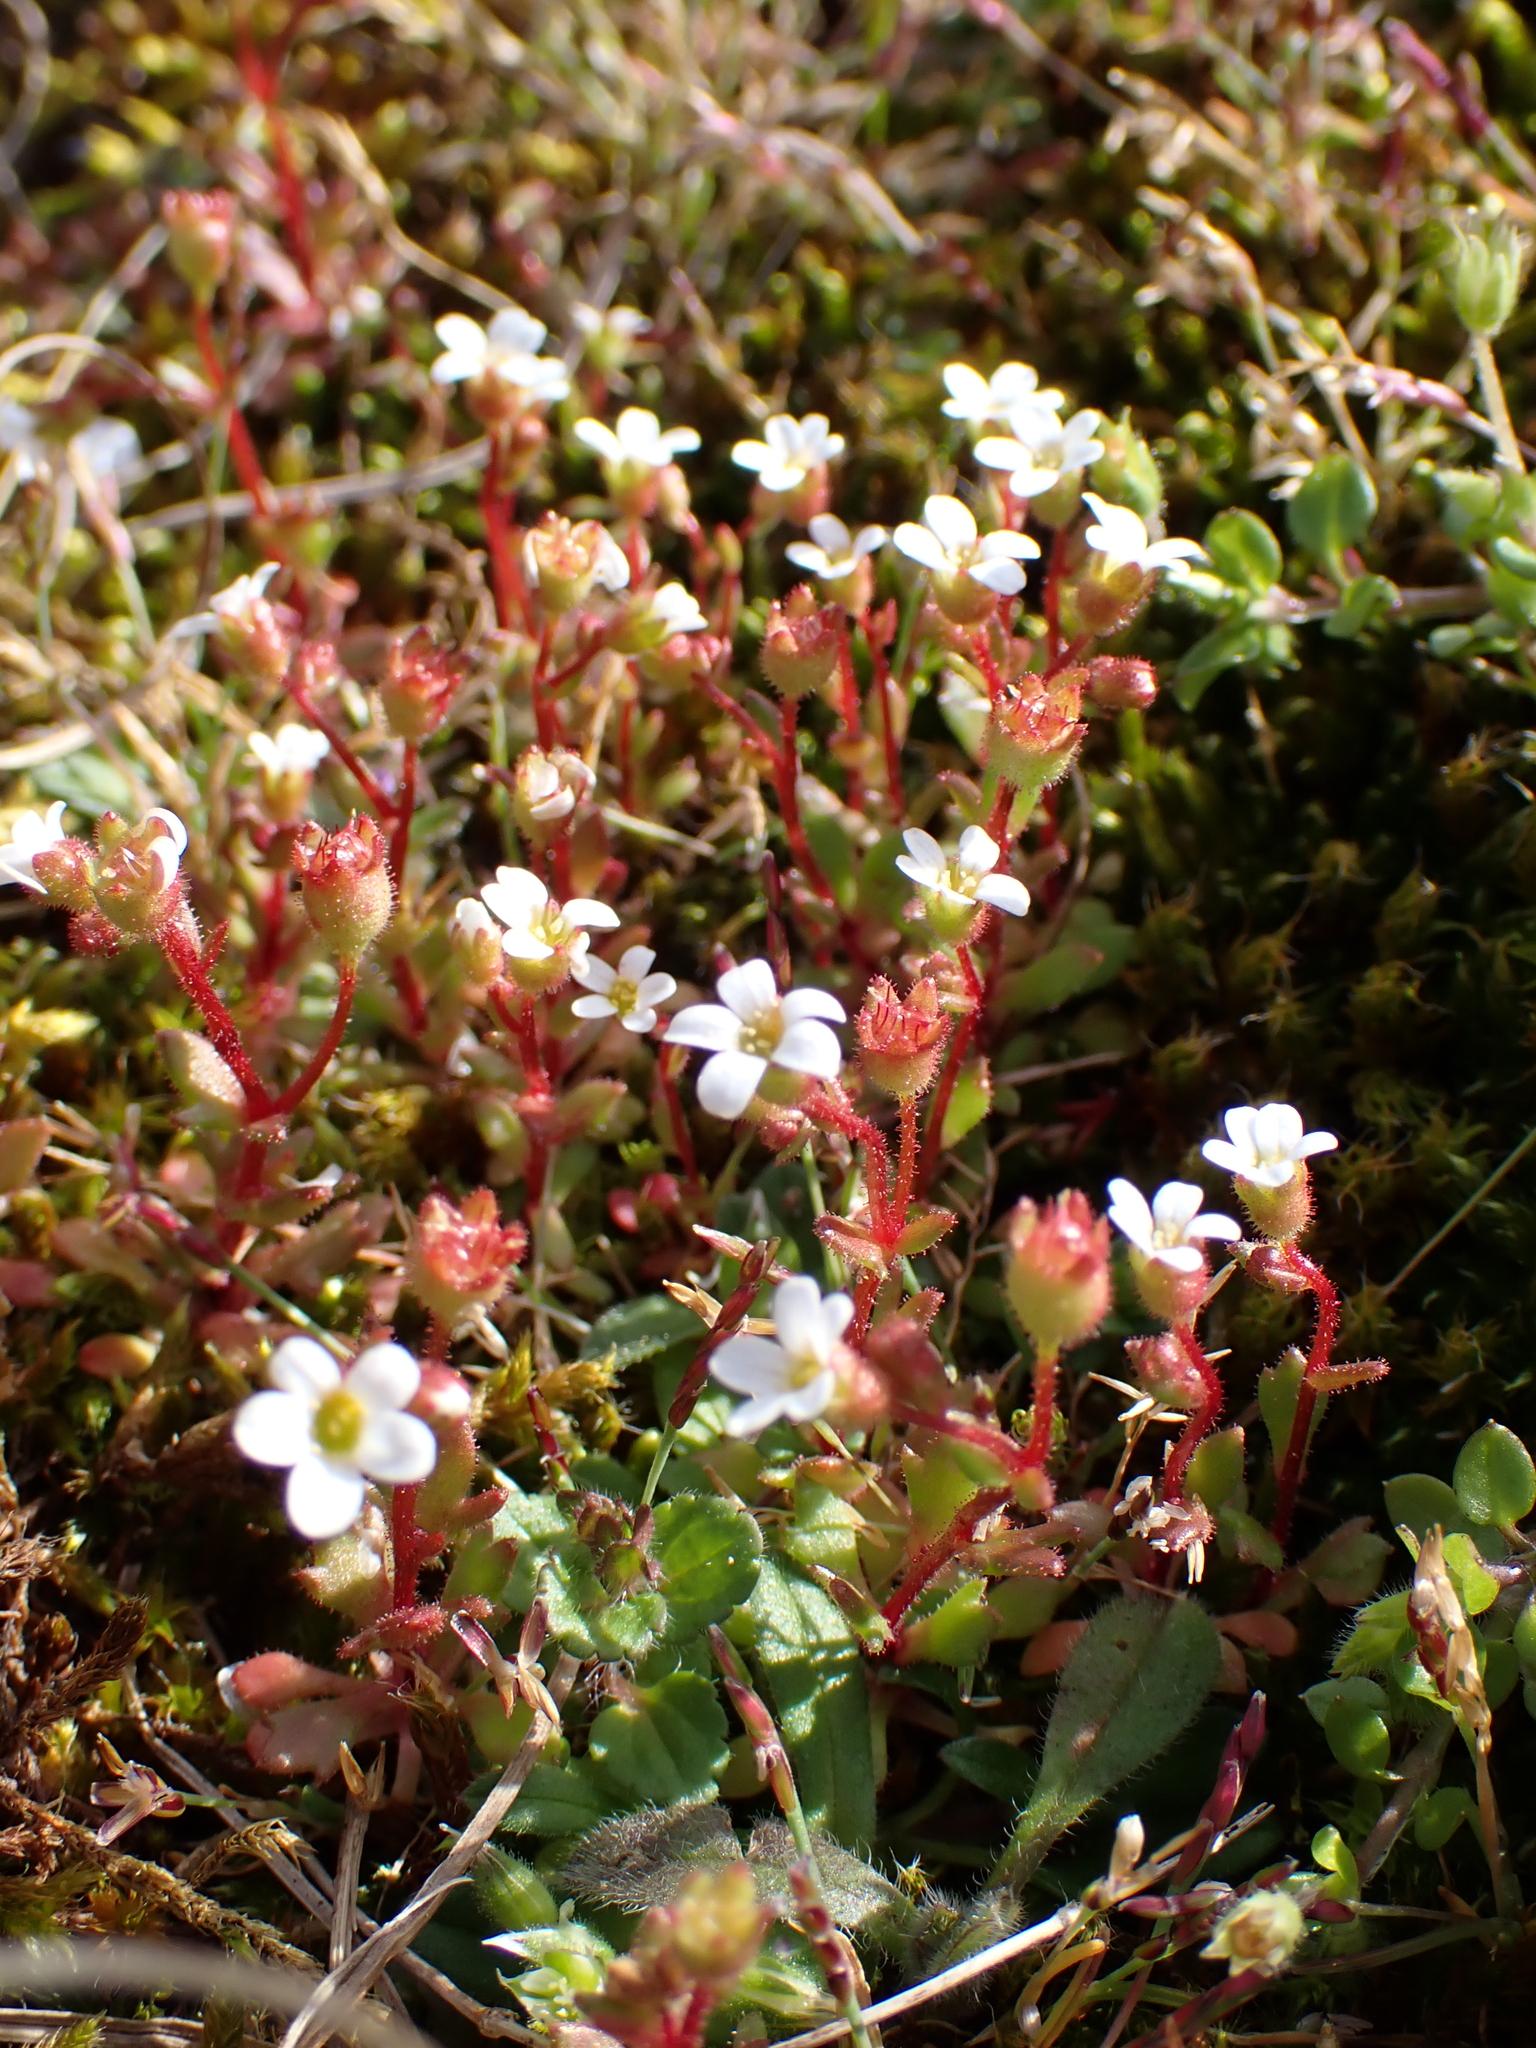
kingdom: Plantae
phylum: Tracheophyta
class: Magnoliopsida
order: Saxifragales
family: Saxifragaceae
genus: Saxifraga
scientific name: Saxifraga tridactylites
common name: Rue-leaved saxifrage
